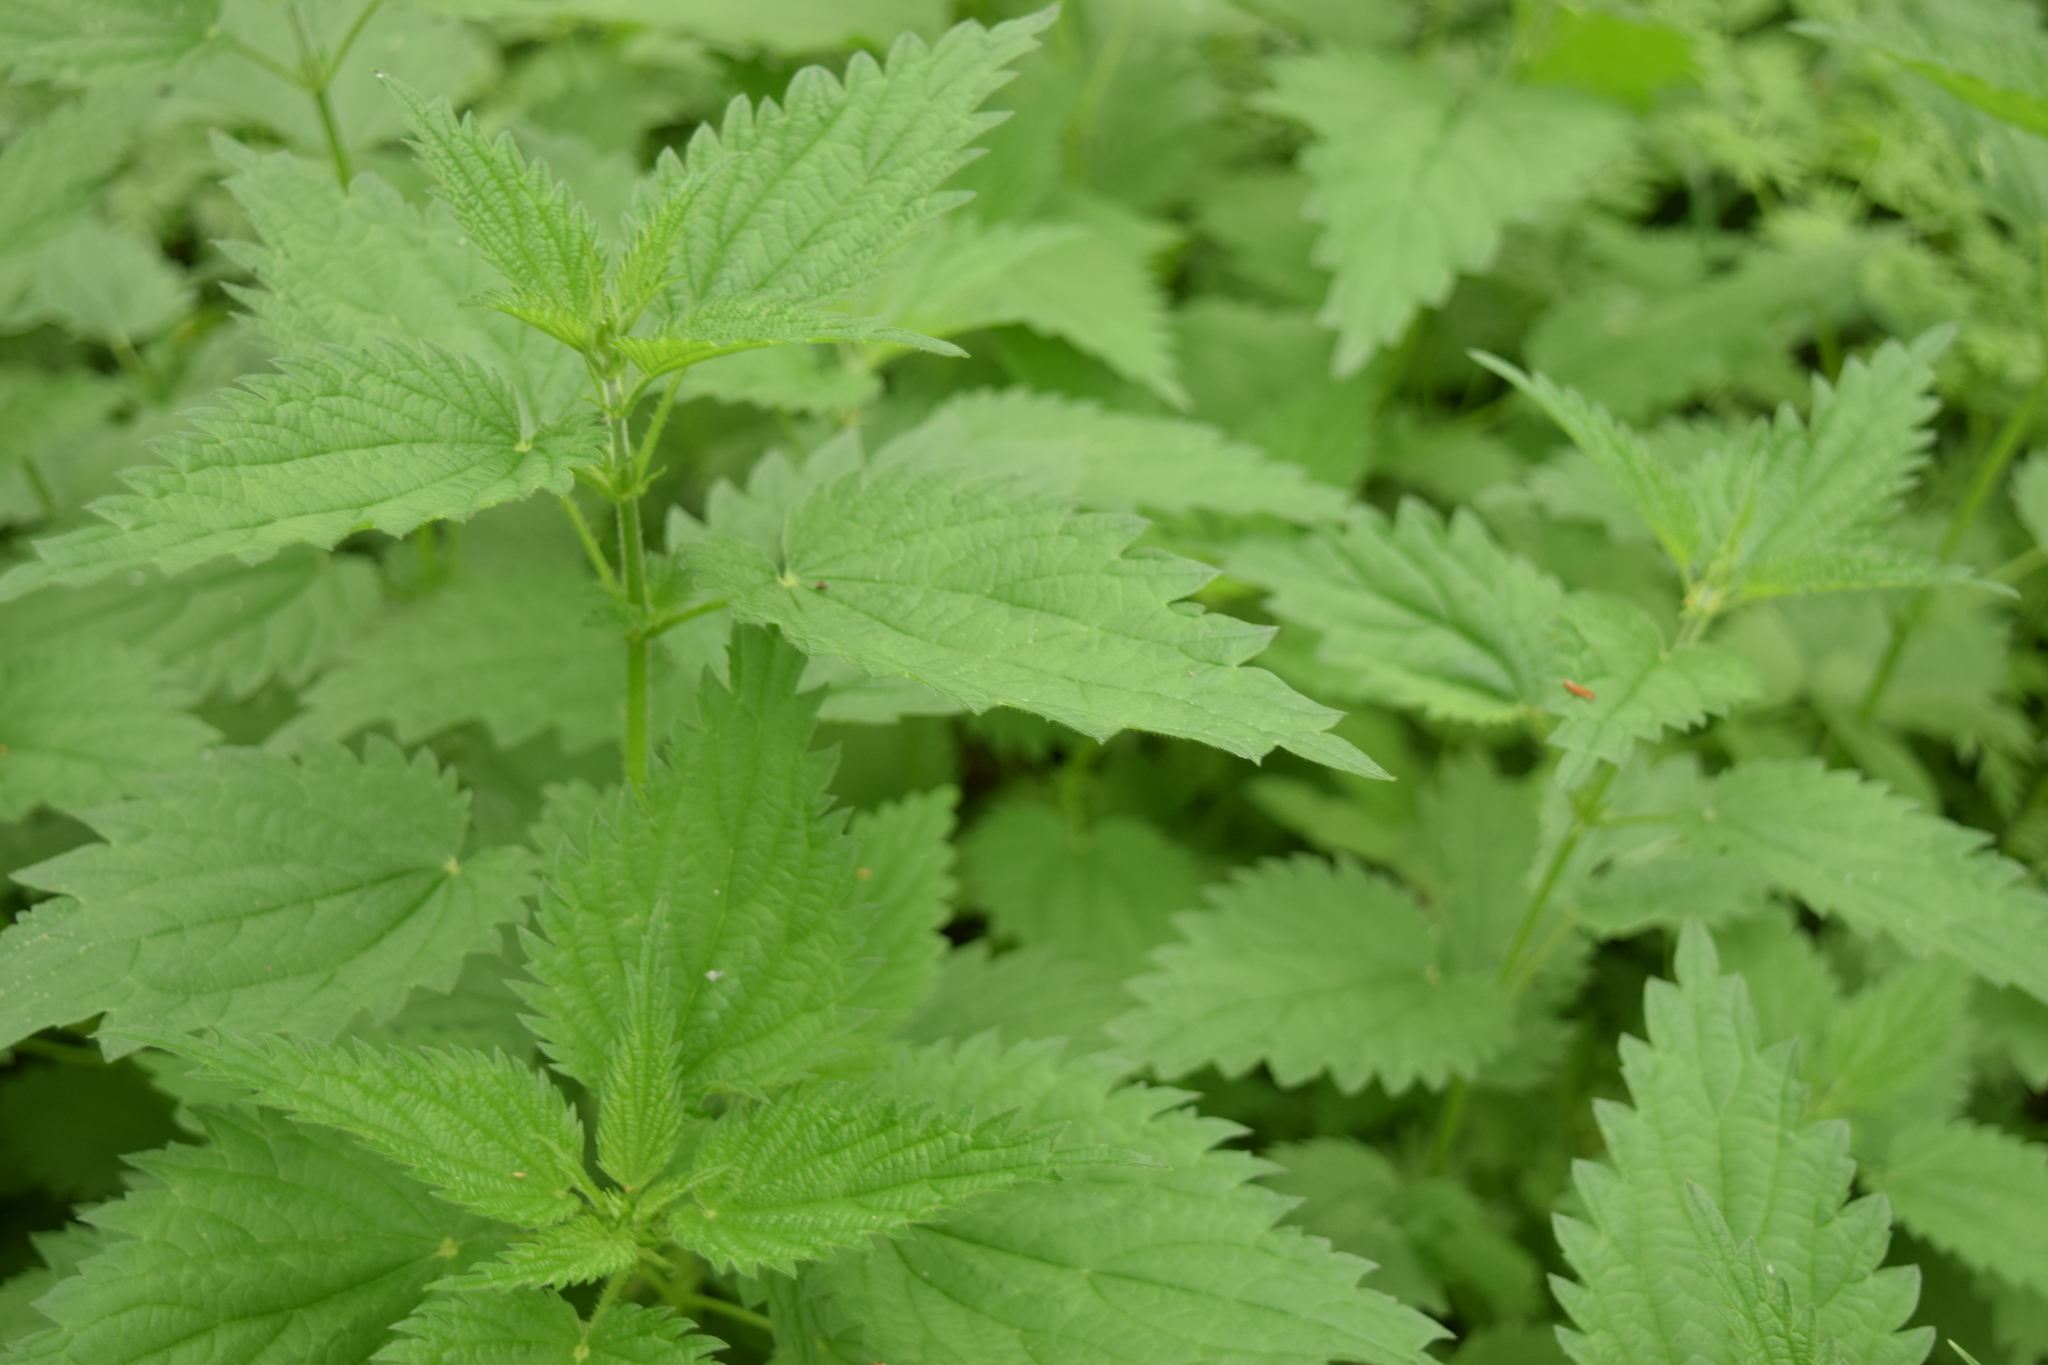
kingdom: Plantae
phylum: Tracheophyta
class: Magnoliopsida
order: Rosales
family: Urticaceae
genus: Urtica
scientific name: Urtica dioica
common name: Common nettle
